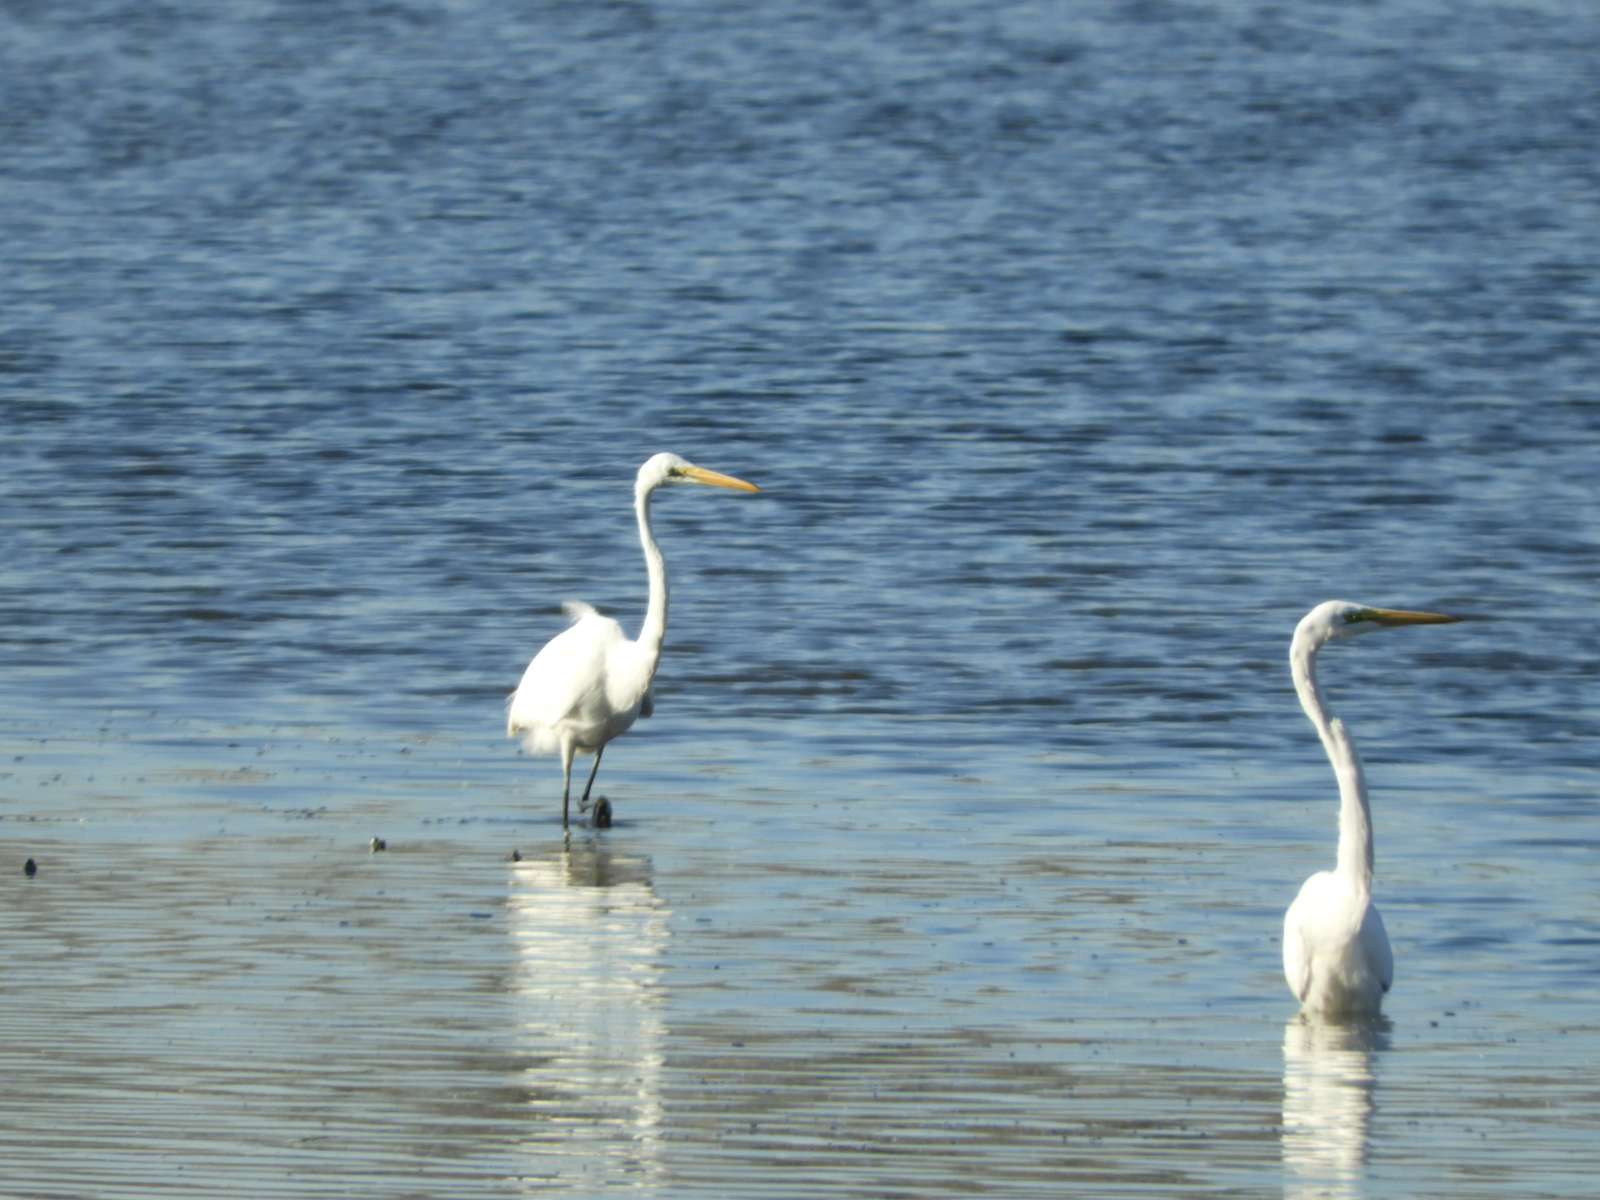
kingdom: Animalia
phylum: Chordata
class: Aves
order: Pelecaniformes
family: Ardeidae
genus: Ardea
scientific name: Ardea alba
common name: Great egret
